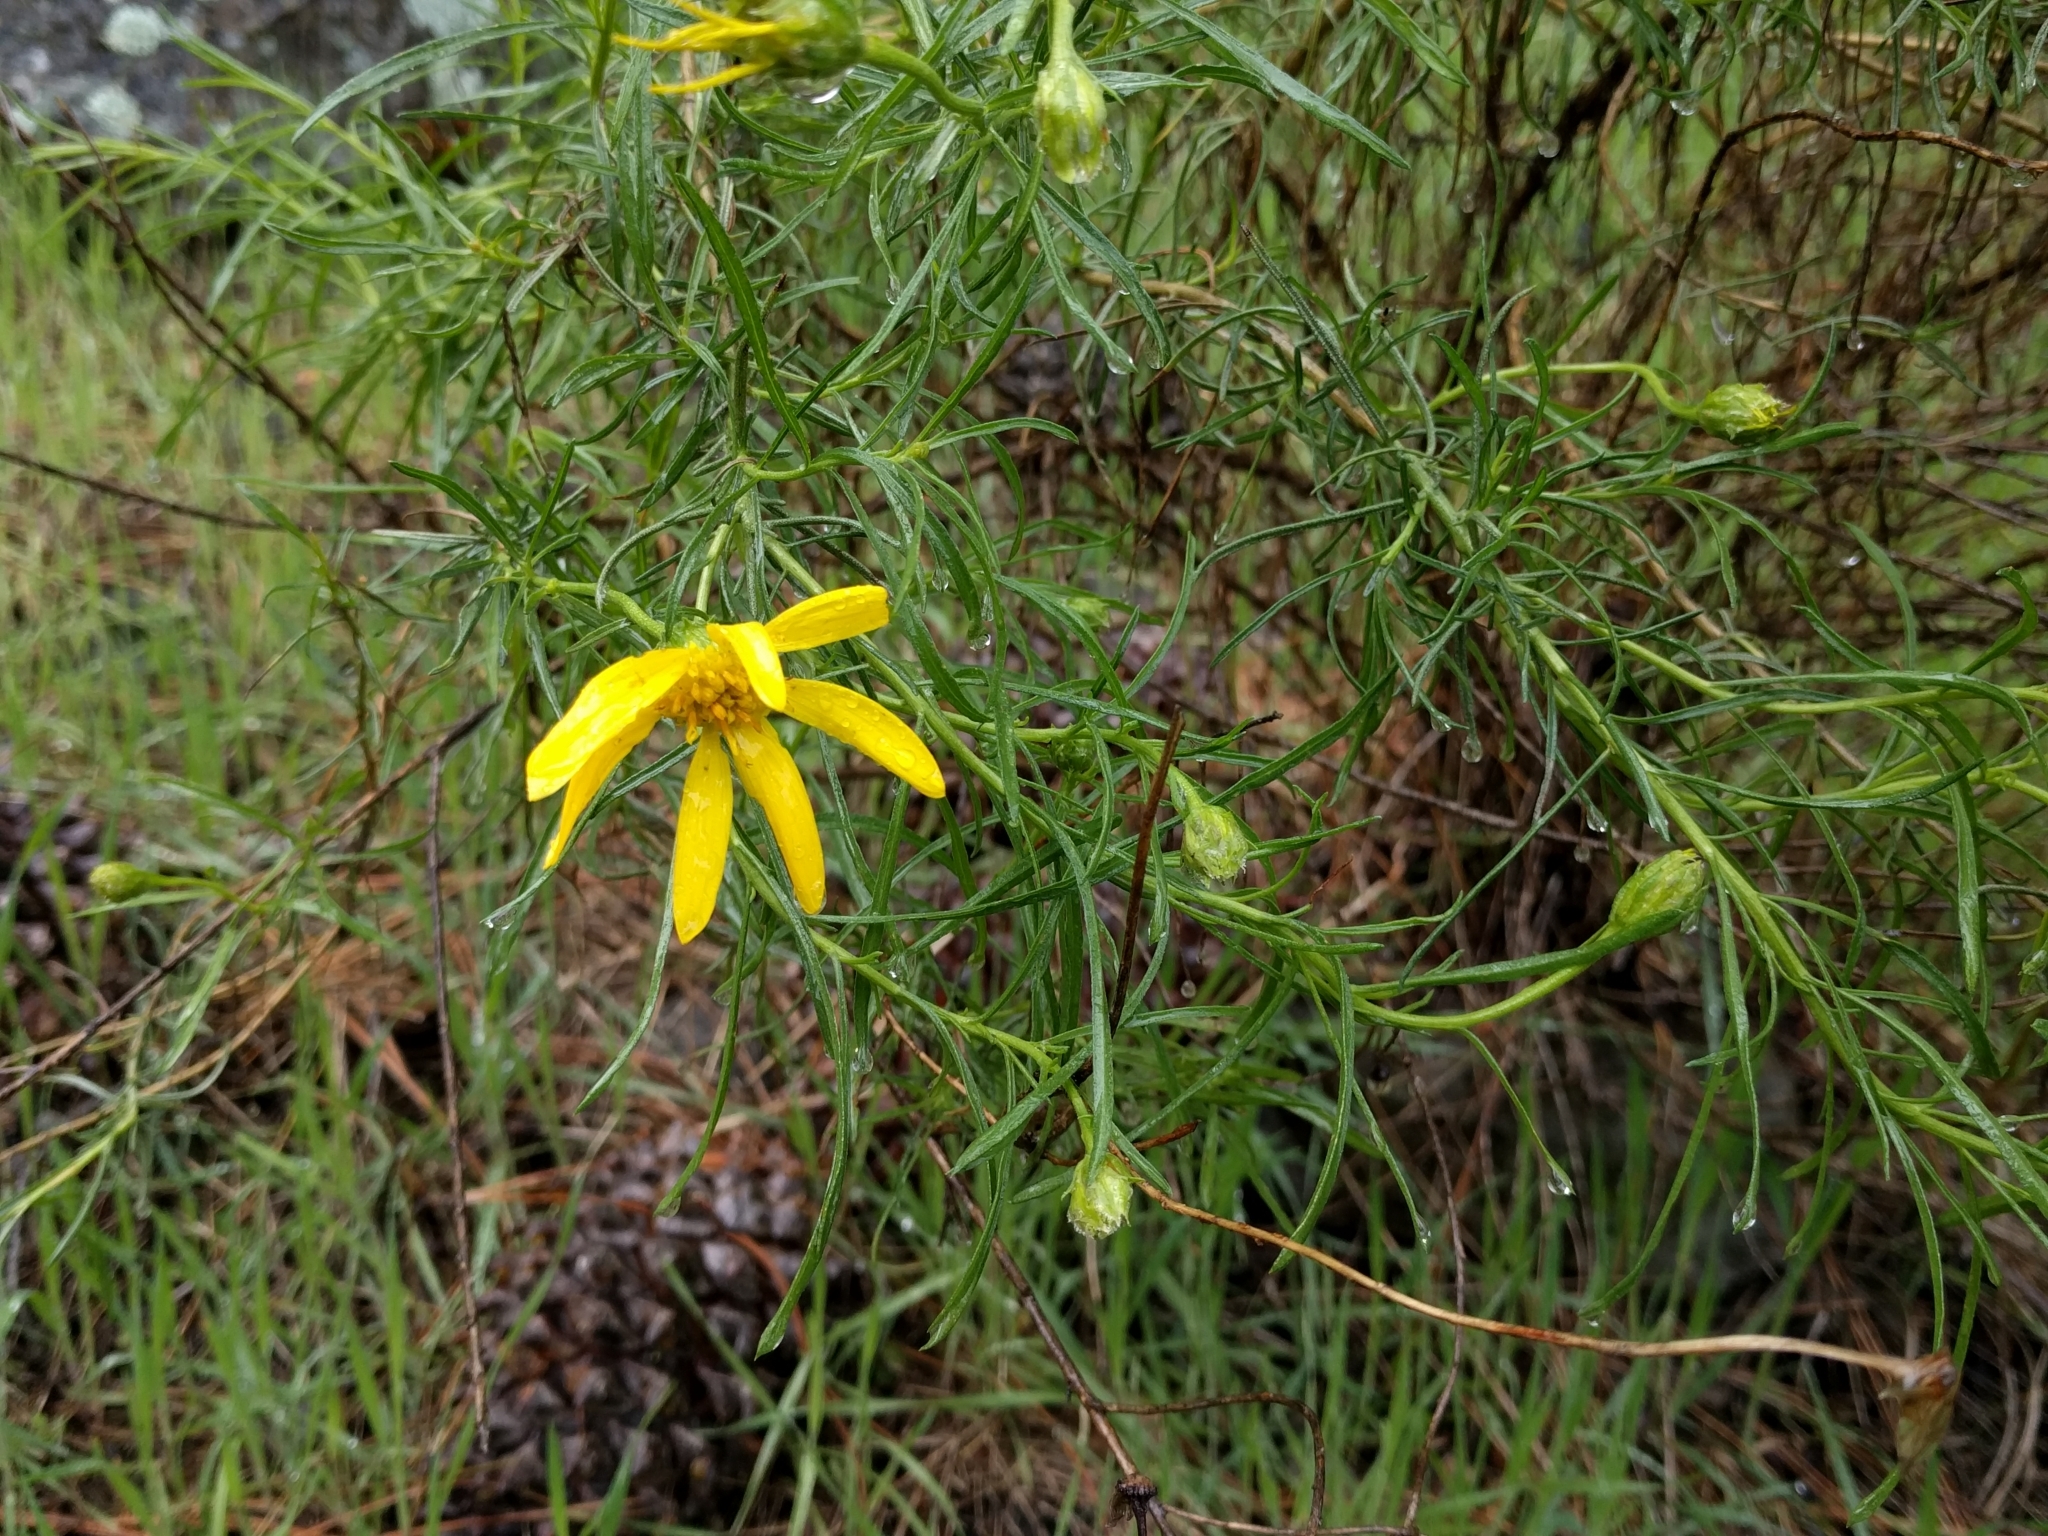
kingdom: Plantae
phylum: Tracheophyta
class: Magnoliopsida
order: Asterales
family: Asteraceae
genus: Ericameria
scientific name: Ericameria linearifolia
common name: Interior goldenbush
